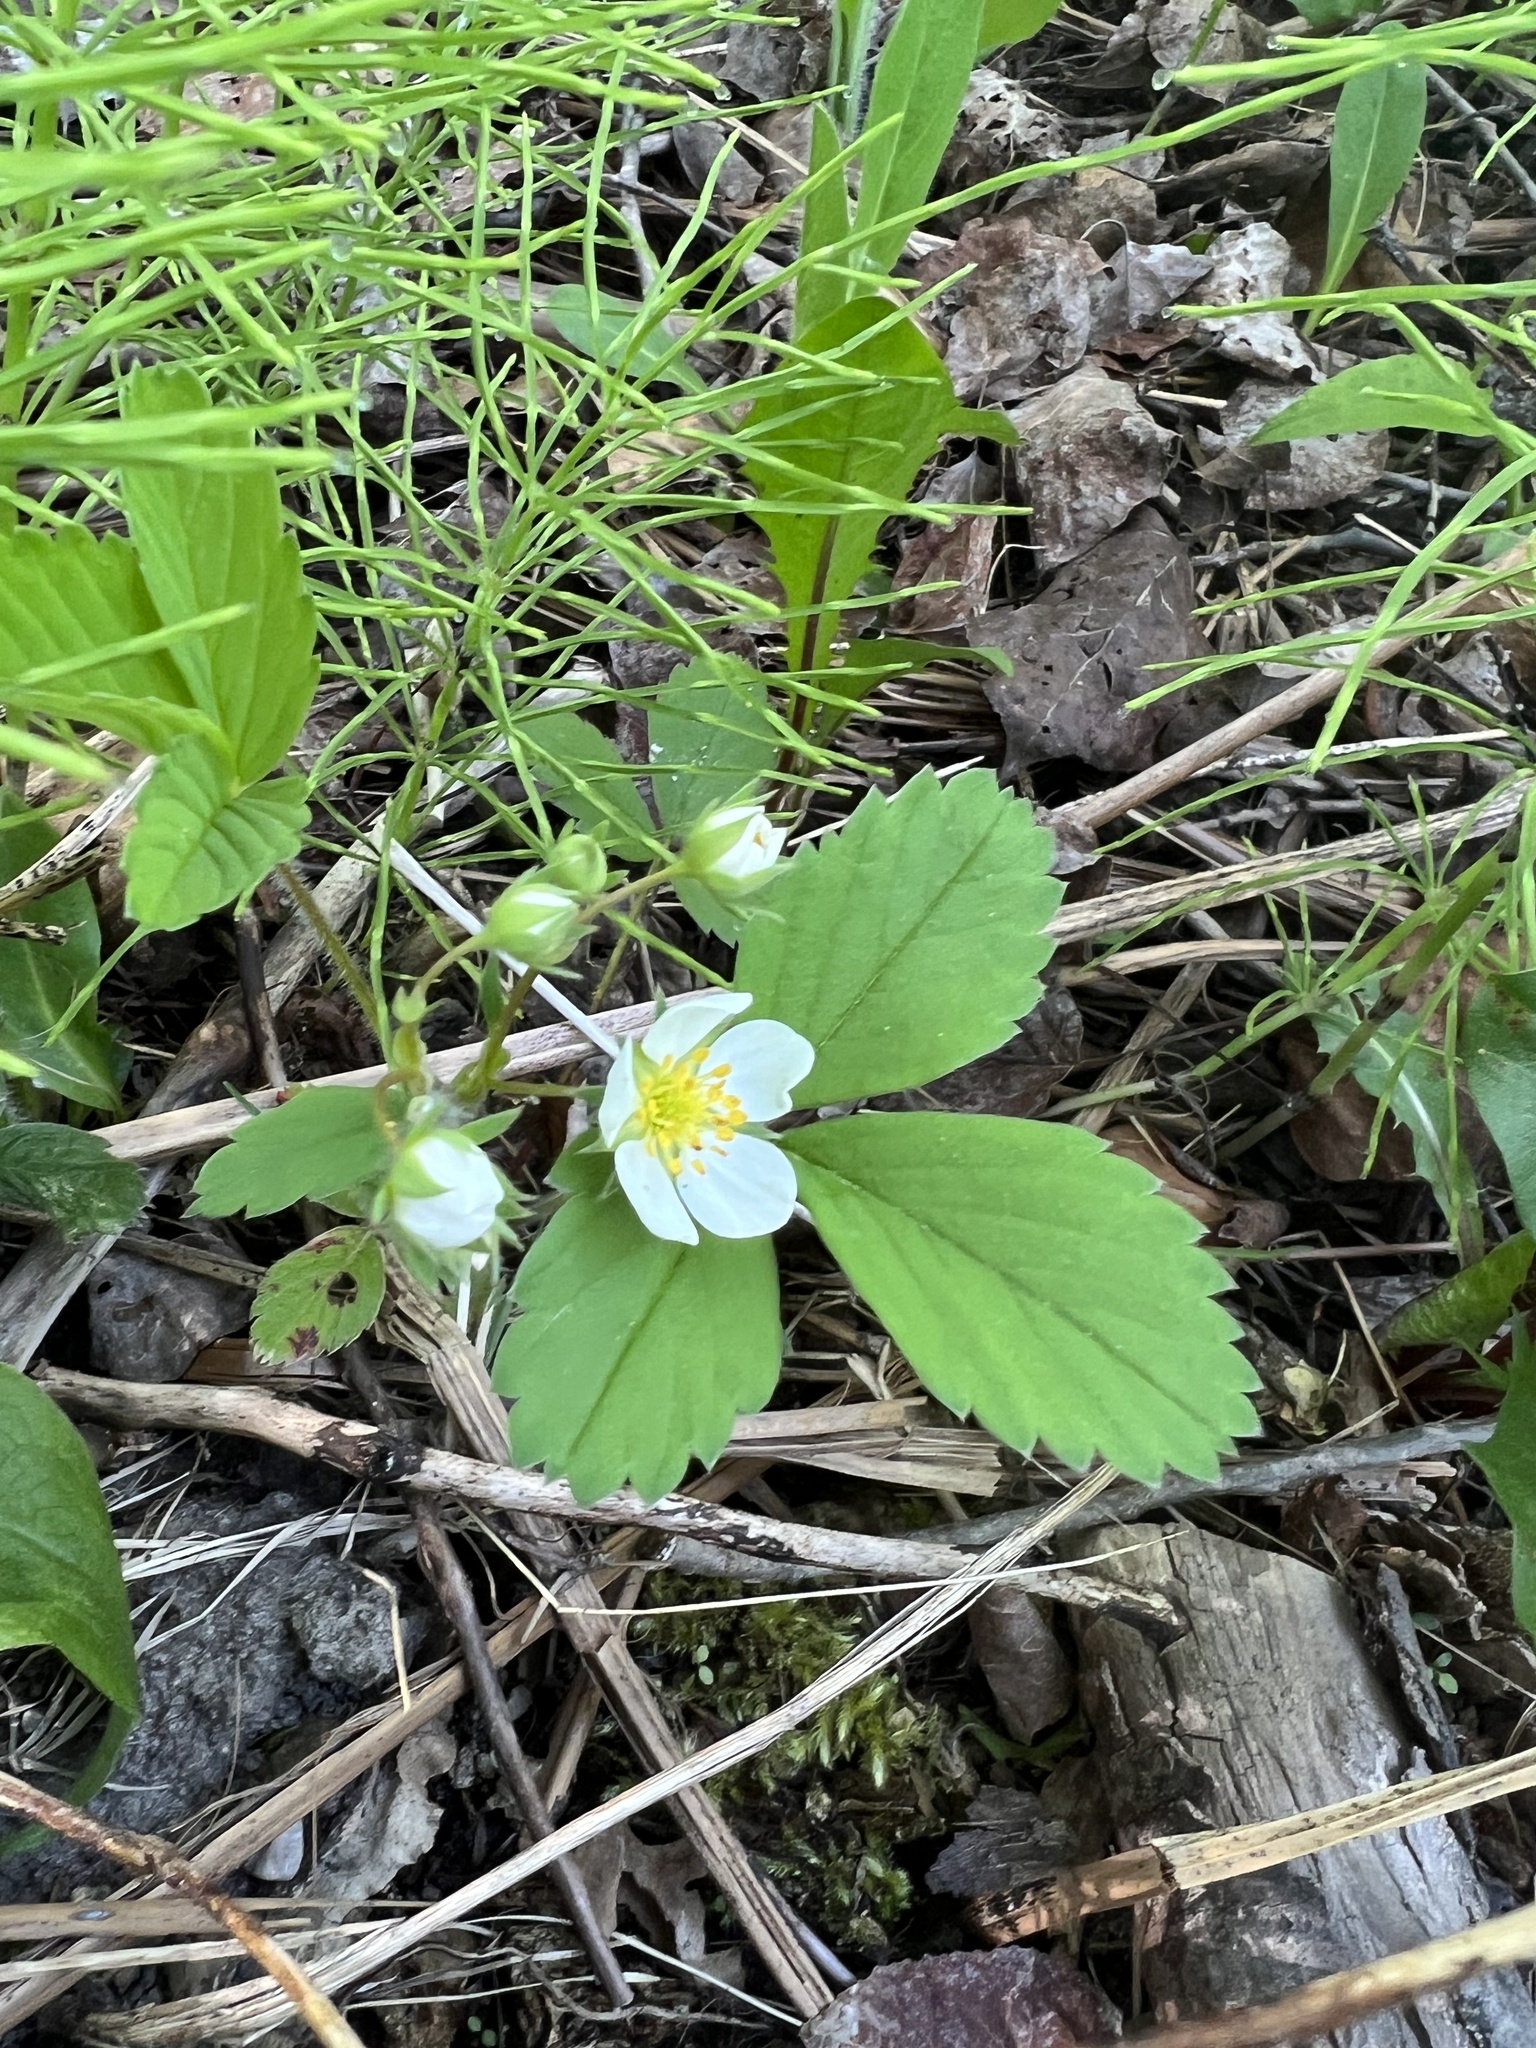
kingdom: Plantae
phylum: Tracheophyta
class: Magnoliopsida
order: Rosales
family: Rosaceae
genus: Fragaria
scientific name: Fragaria virginiana
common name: Thickleaved wild strawberry
